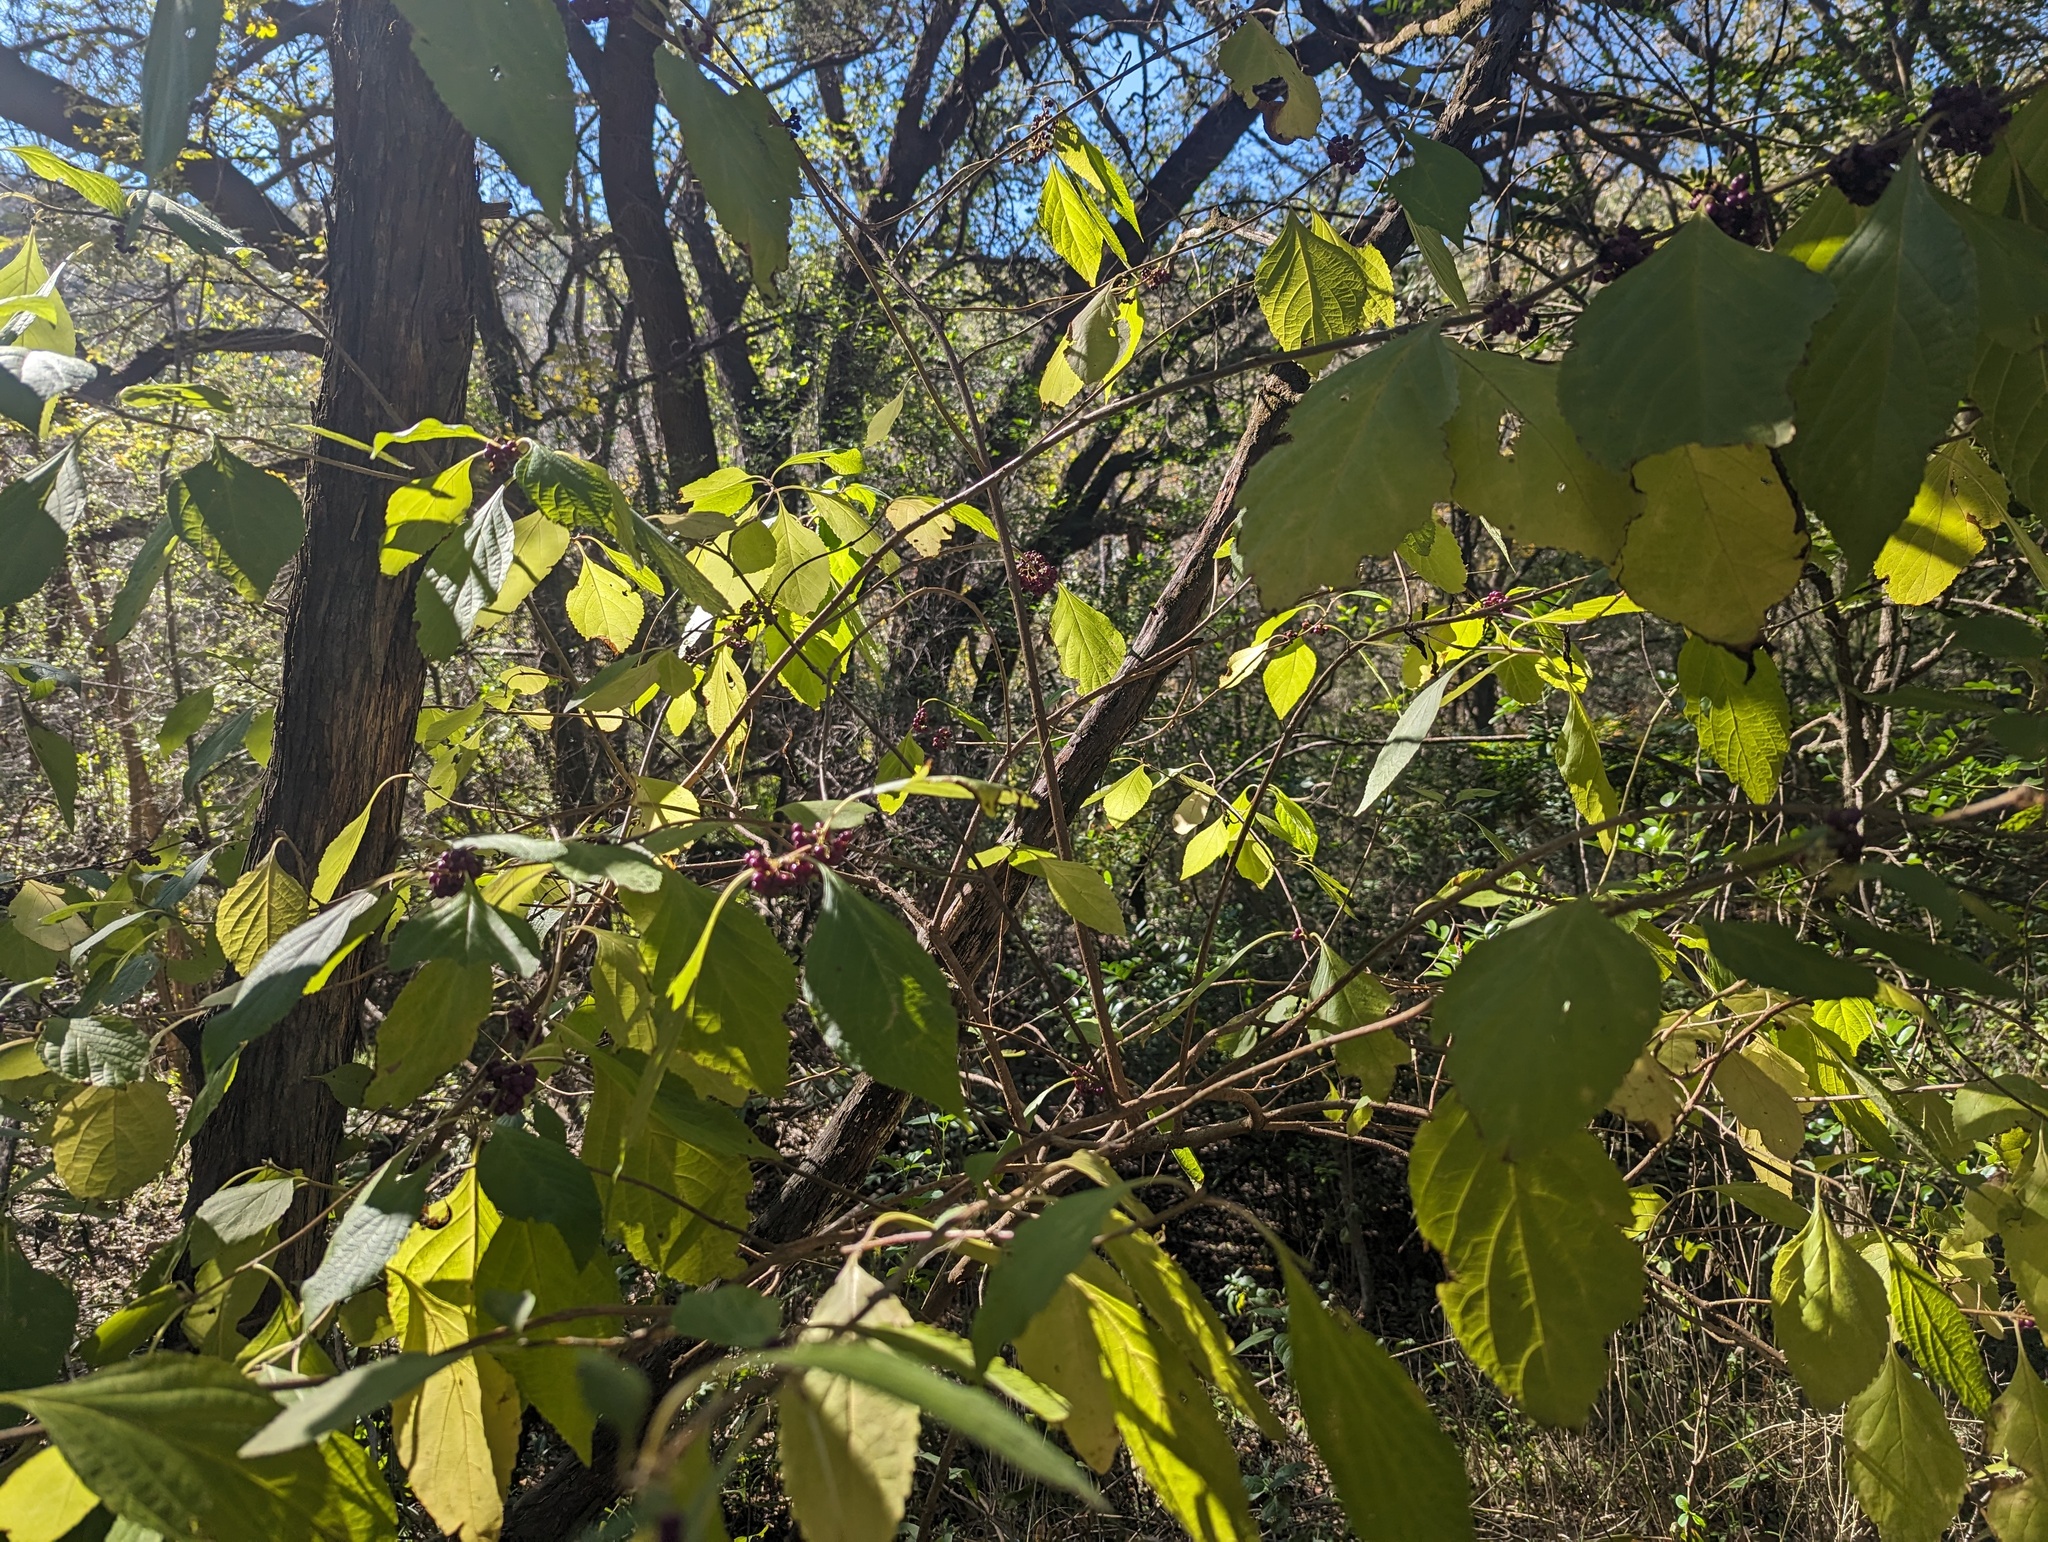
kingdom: Plantae
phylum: Tracheophyta
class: Magnoliopsida
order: Lamiales
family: Lamiaceae
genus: Callicarpa
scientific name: Callicarpa americana
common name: American beautyberry
